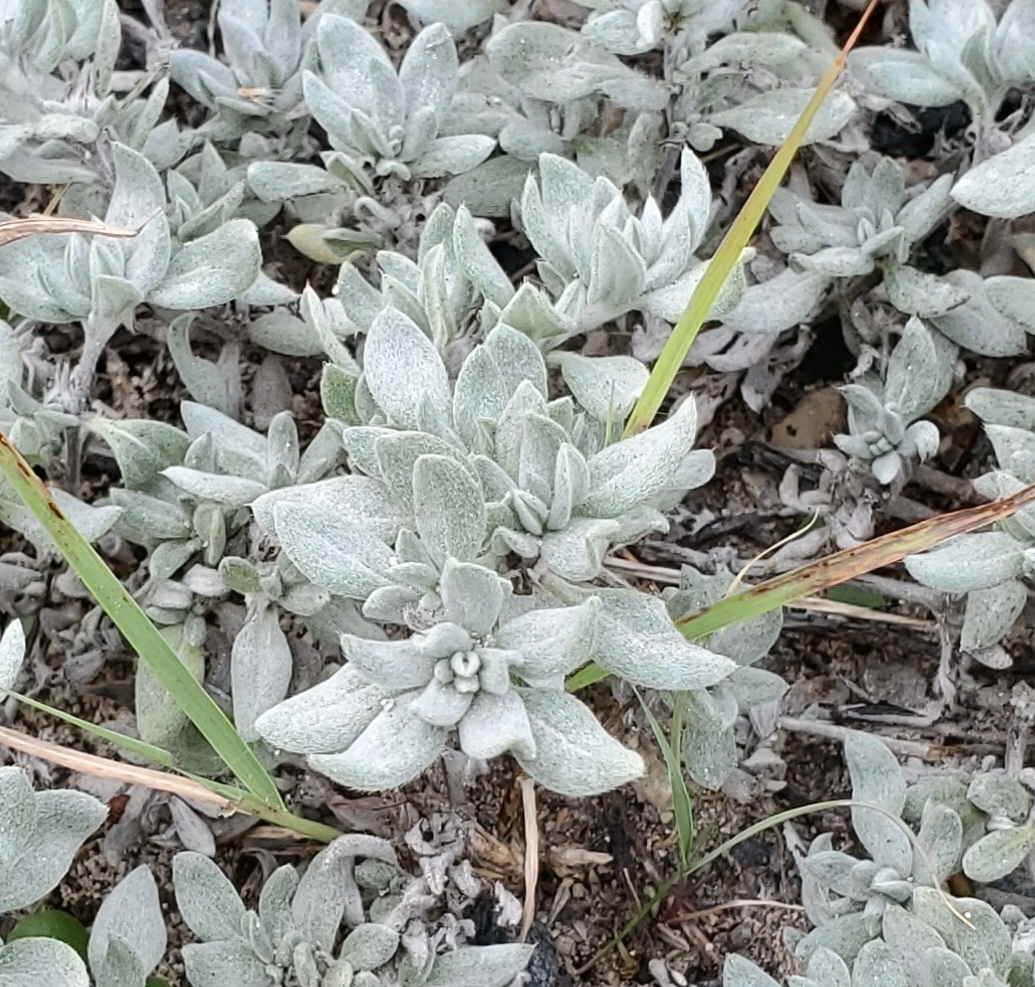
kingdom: Plantae
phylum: Tracheophyta
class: Magnoliopsida
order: Boraginales
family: Ehretiaceae
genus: Tiquilia
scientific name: Tiquilia canescens
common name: Hairy tiquilia
